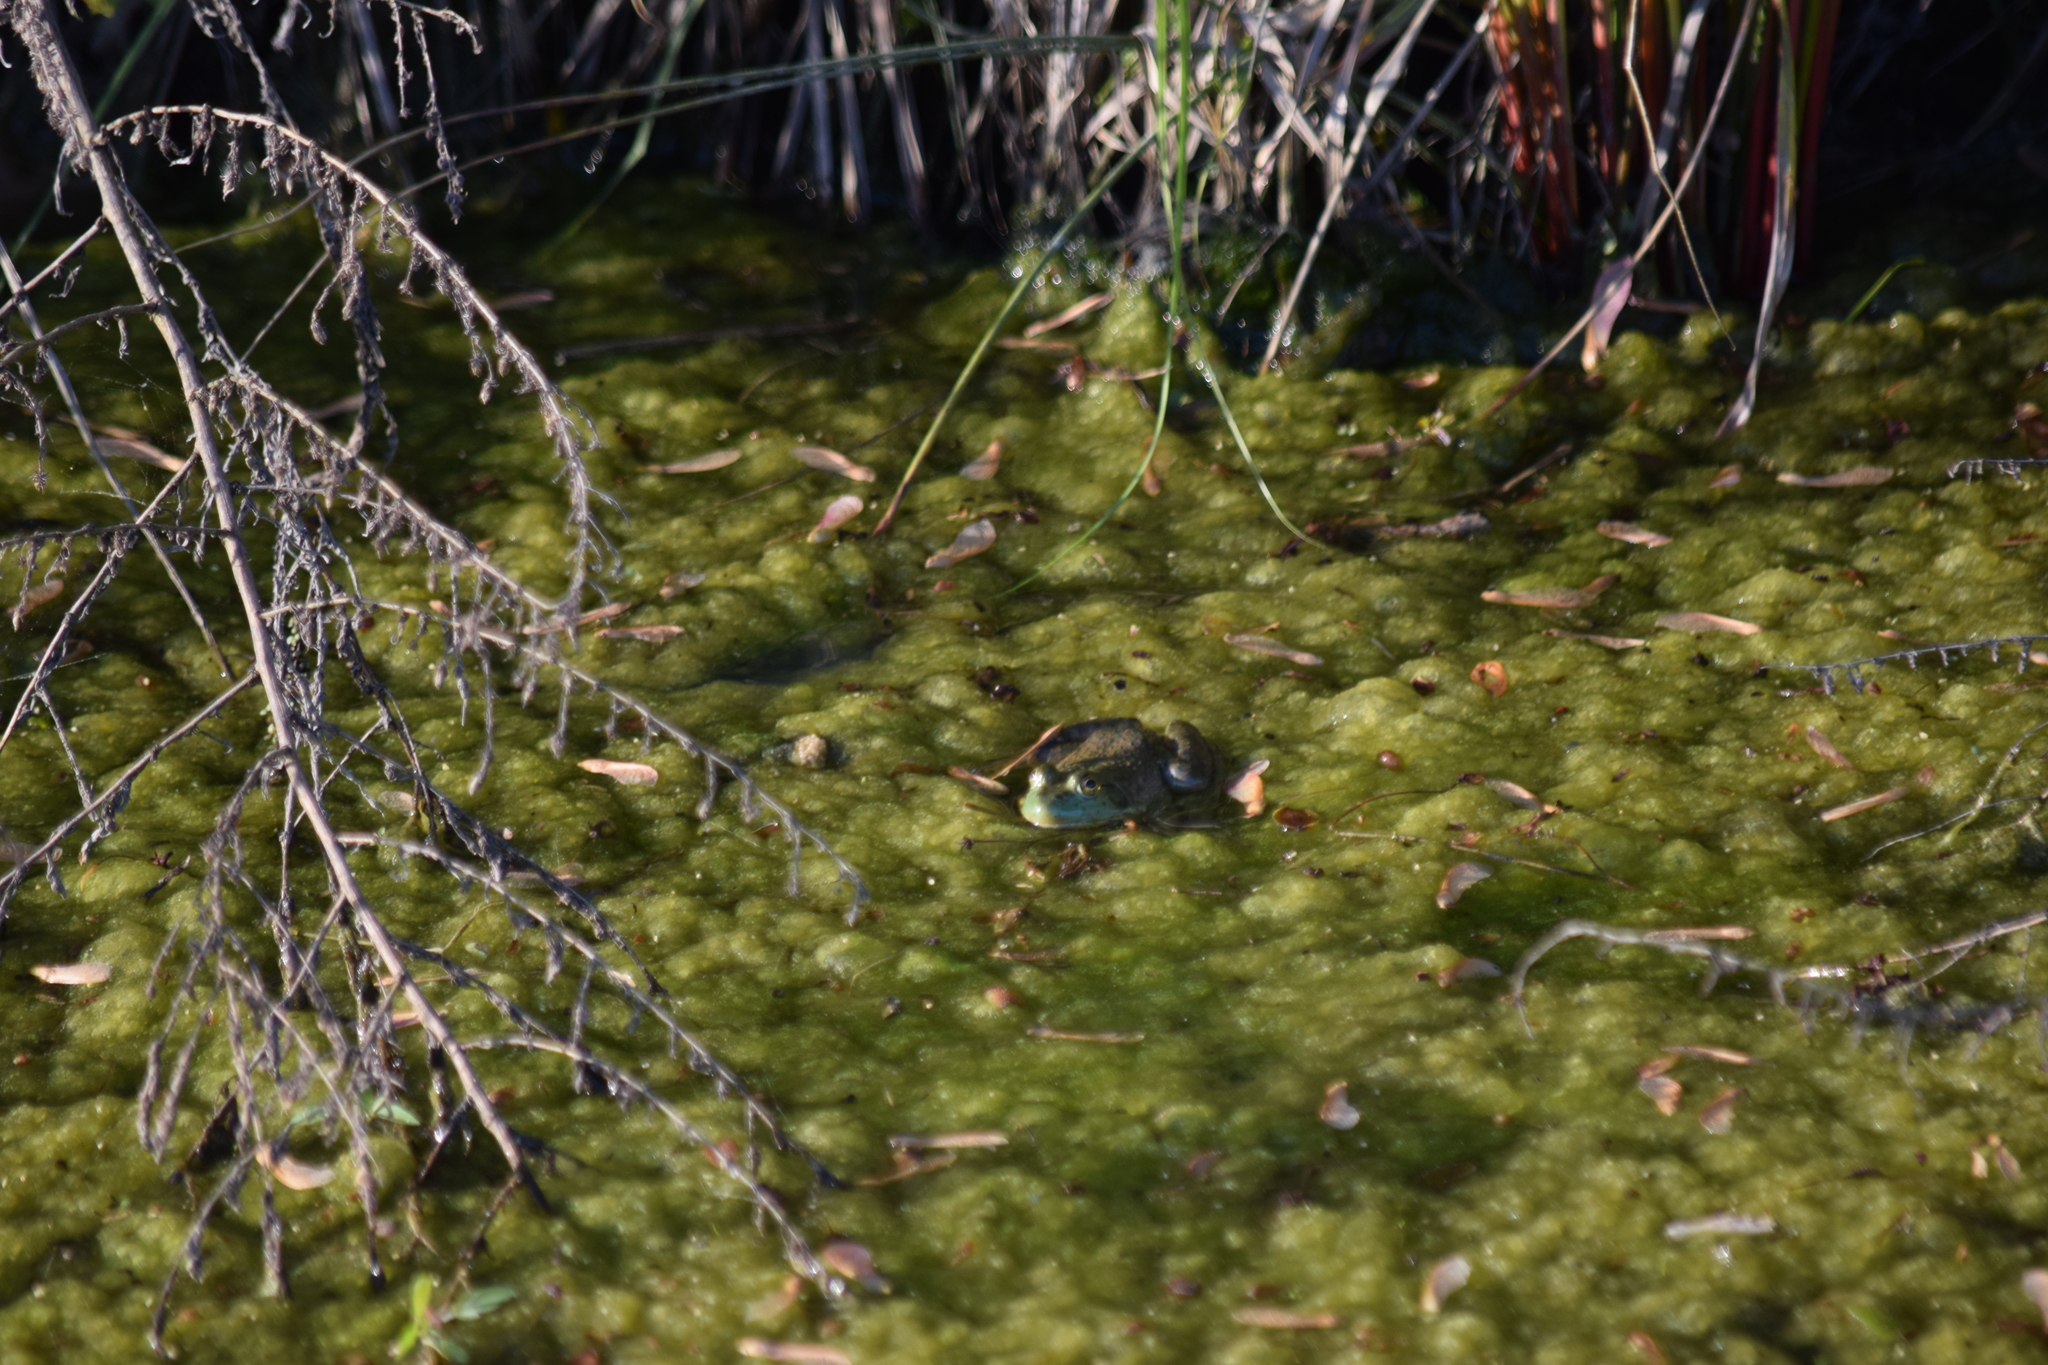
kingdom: Animalia
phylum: Chordata
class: Amphibia
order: Anura
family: Ranidae
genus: Lithobates
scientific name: Lithobates catesbeianus
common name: American bullfrog
